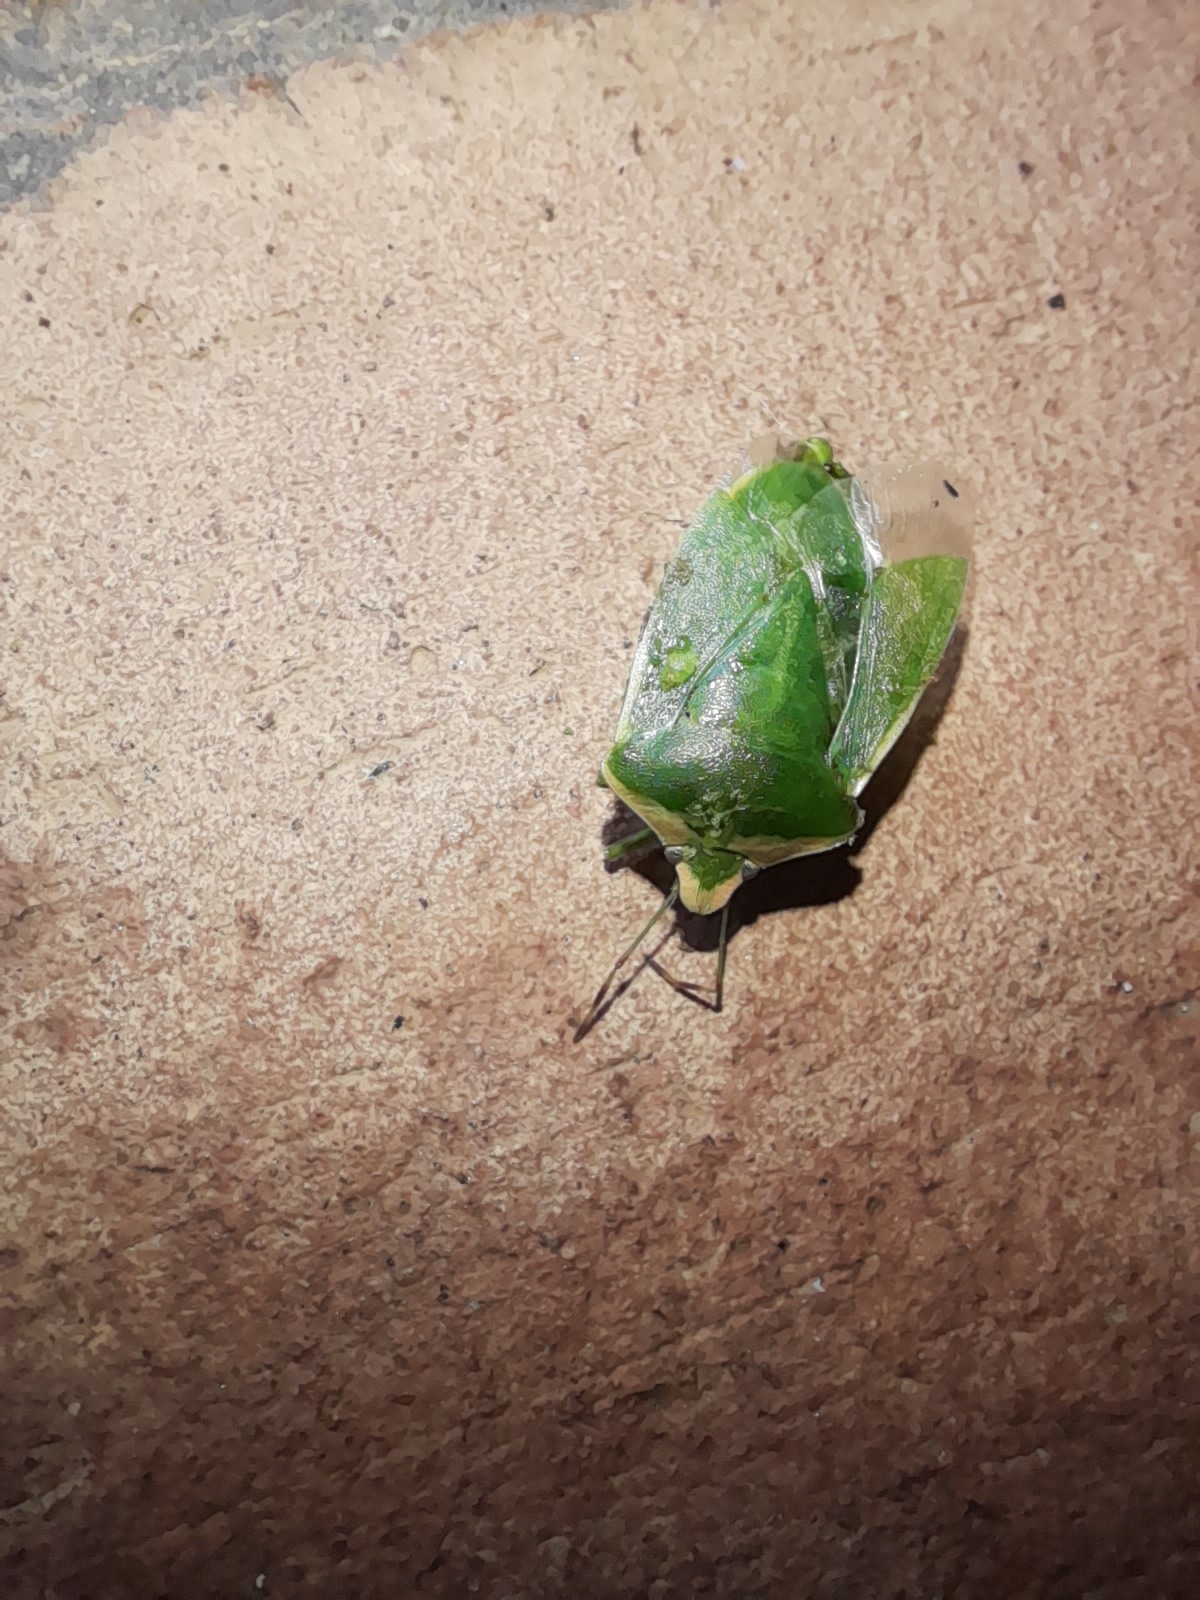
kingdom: Animalia
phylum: Arthropoda
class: Insecta
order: Hemiptera
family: Pentatomidae
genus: Nezara
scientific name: Nezara viridula
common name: Southern green stink bug
